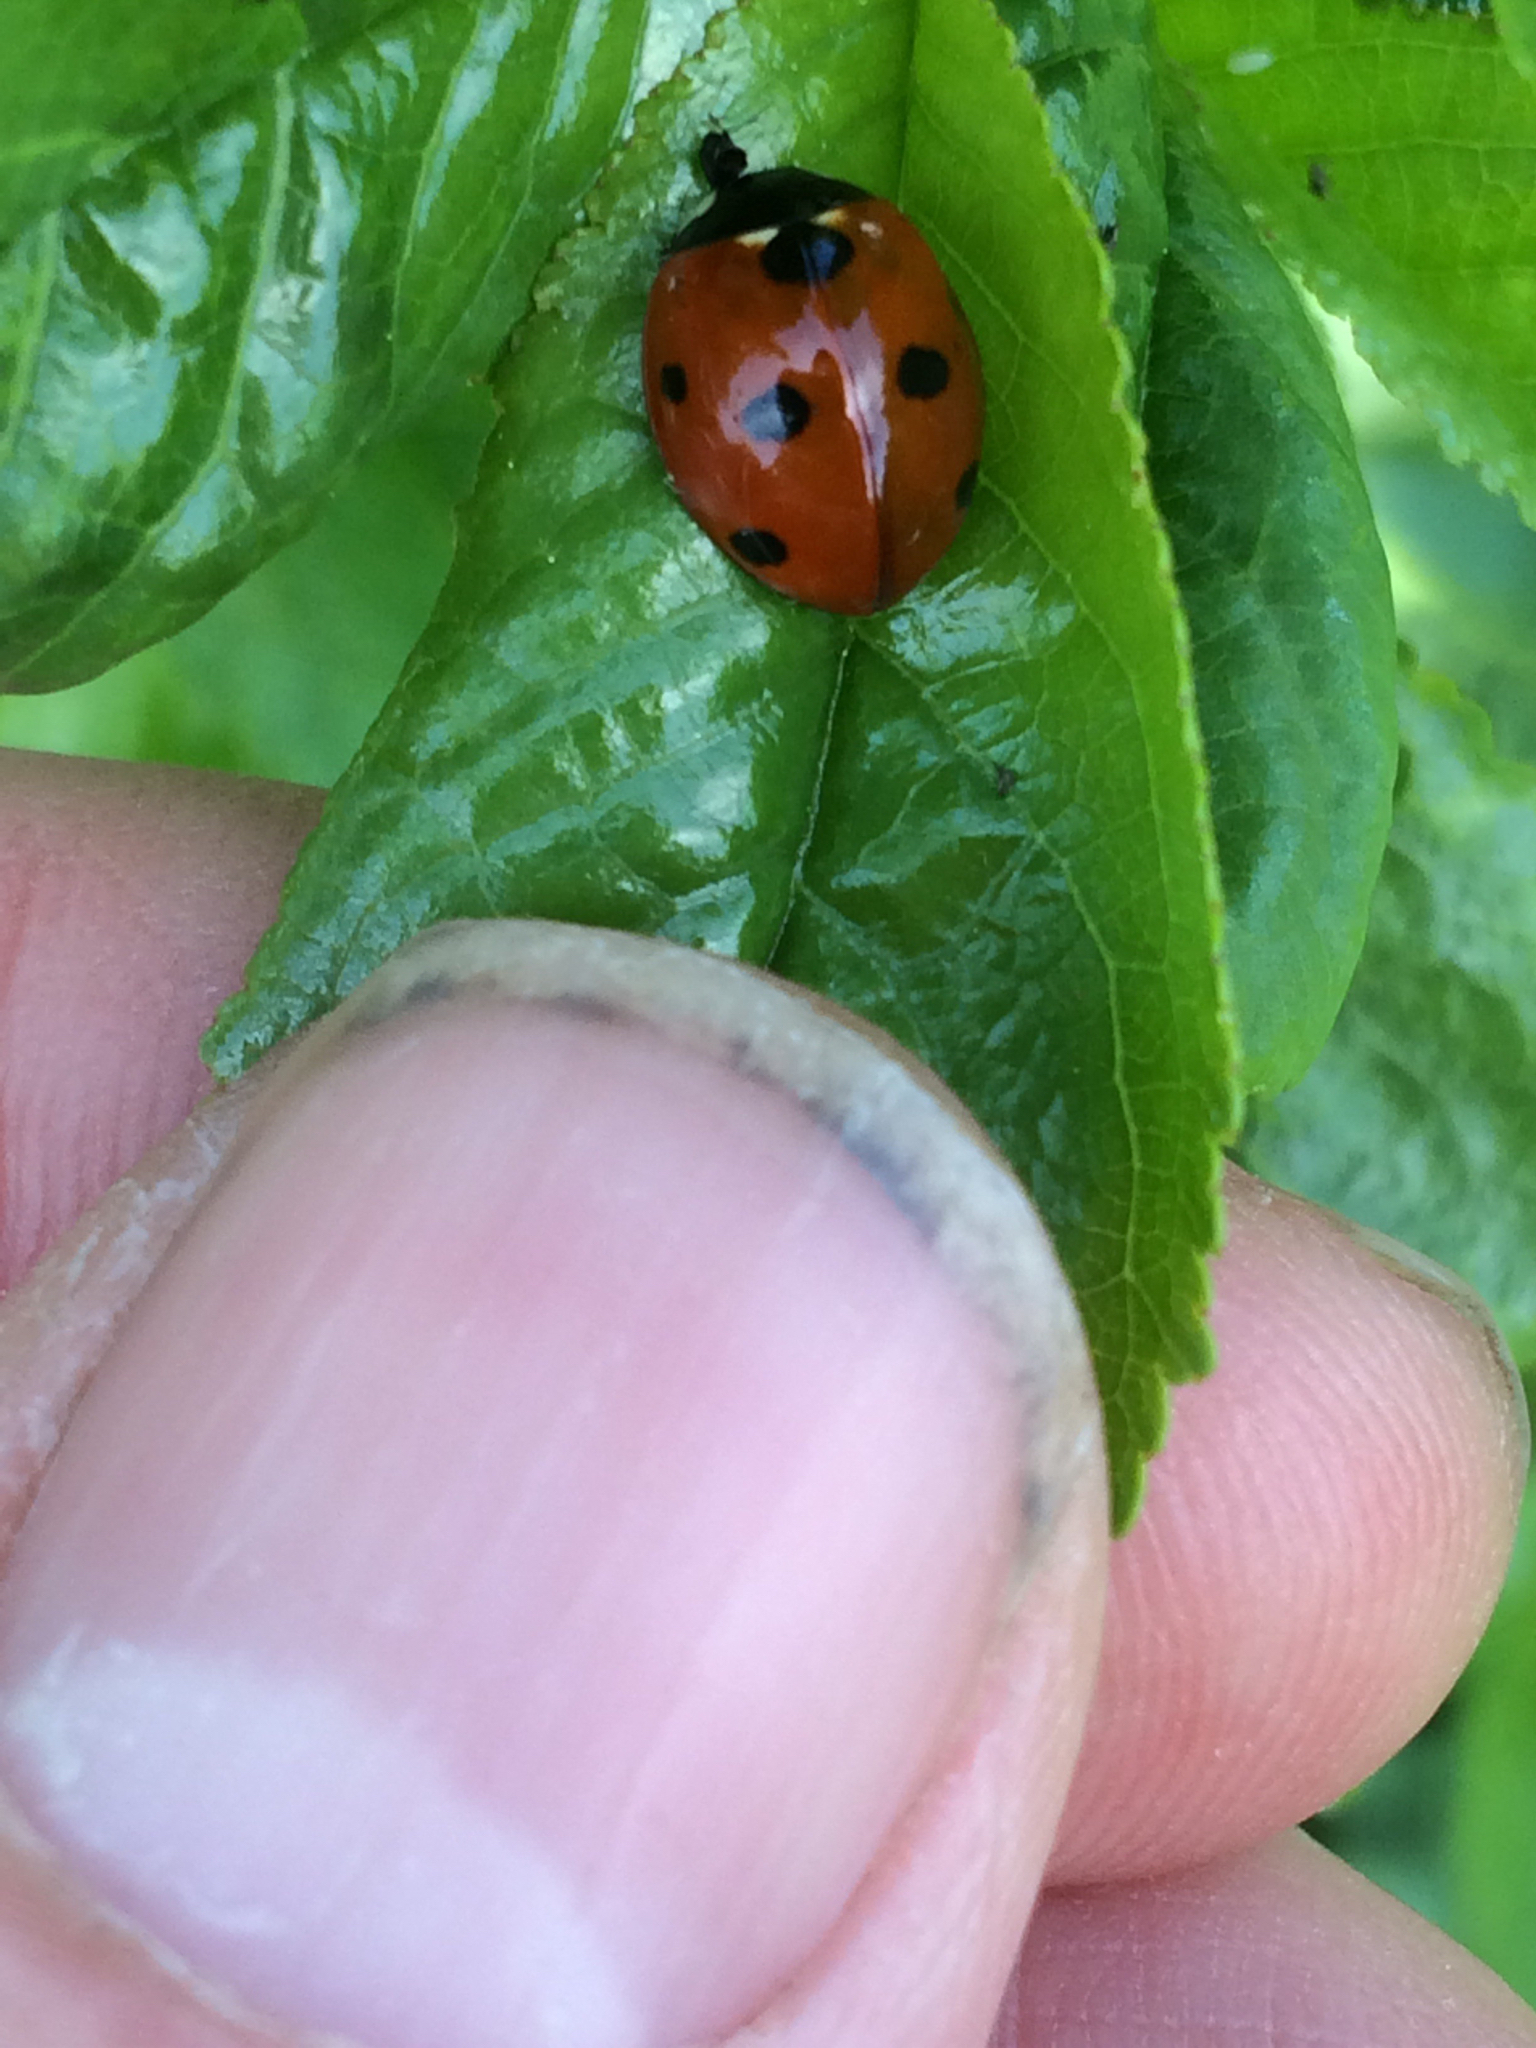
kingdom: Animalia
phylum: Arthropoda
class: Insecta
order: Coleoptera
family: Coccinellidae
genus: Coccinella
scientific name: Coccinella septempunctata
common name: Sevenspotted lady beetle
